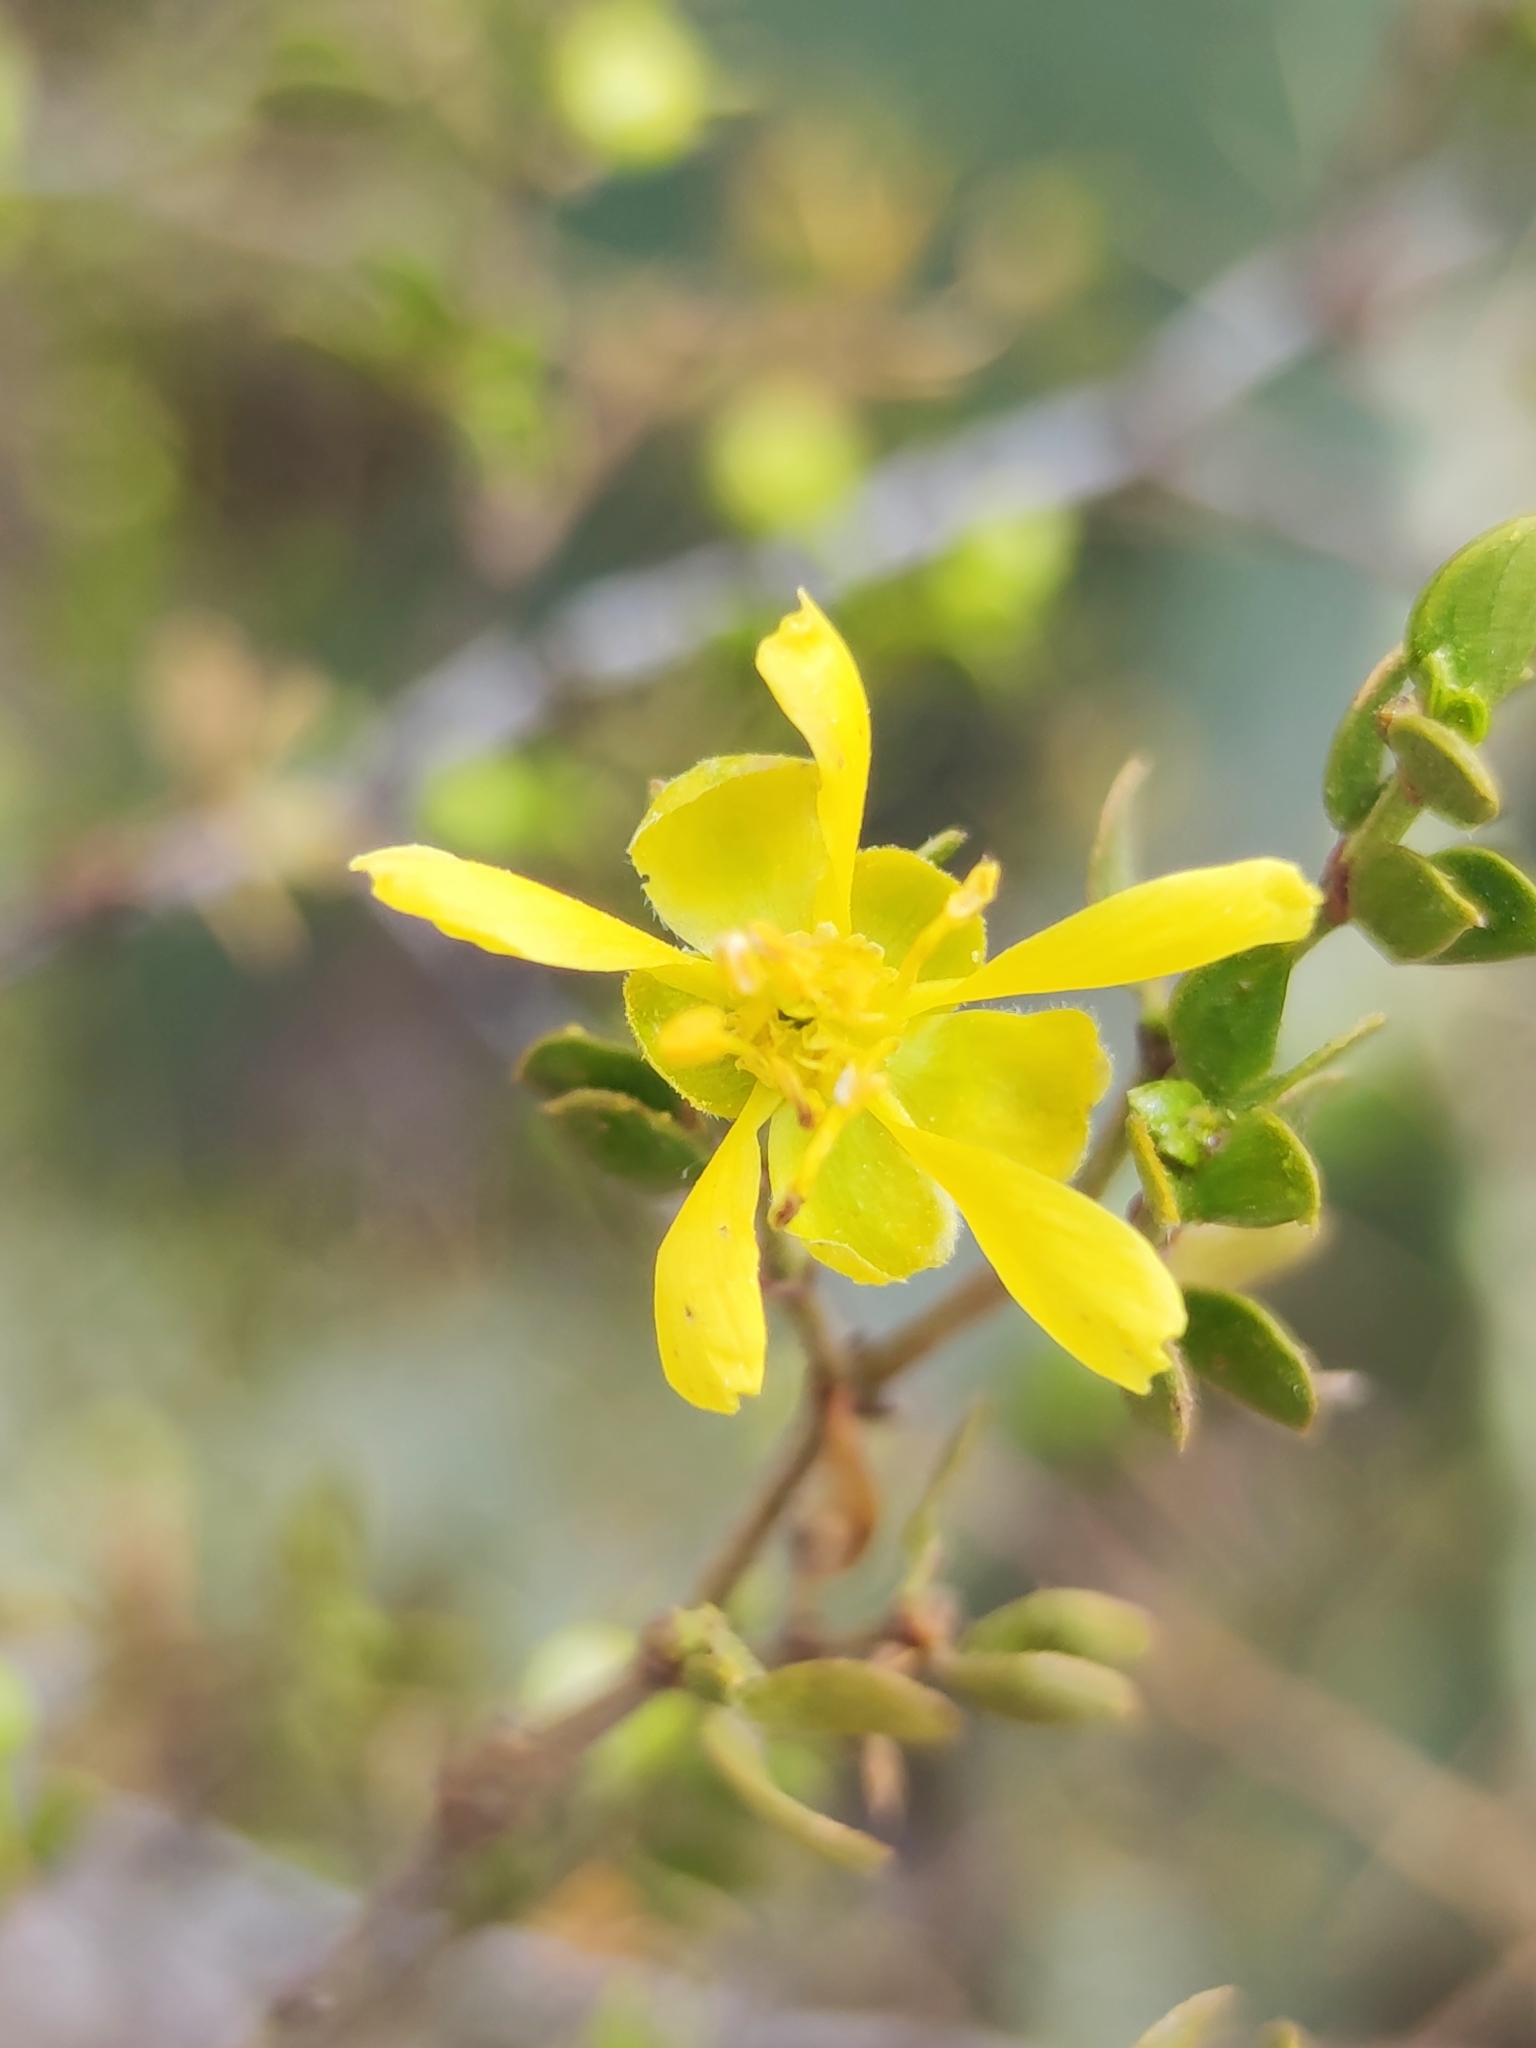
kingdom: Plantae
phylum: Tracheophyta
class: Magnoliopsida
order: Zygophyllales
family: Zygophyllaceae
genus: Larrea
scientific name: Larrea tridentata
